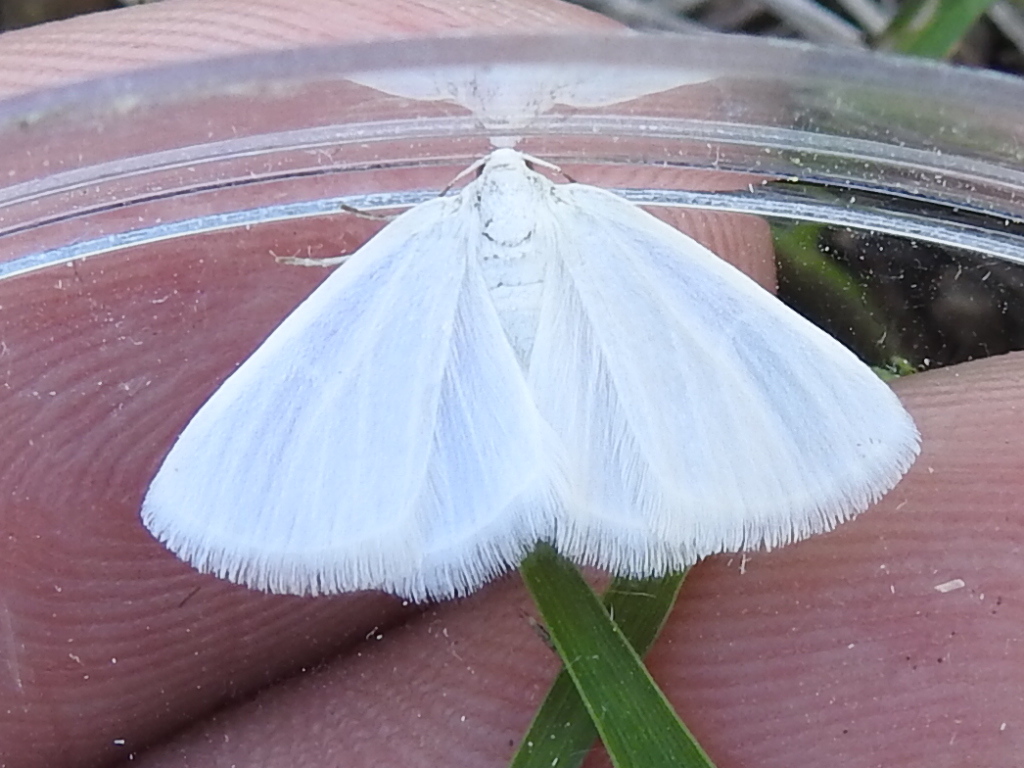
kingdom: Animalia
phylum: Arthropoda
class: Insecta
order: Lepidoptera
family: Geometridae
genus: Lomographa
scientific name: Lomographa vestaliata
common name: White spring moth
